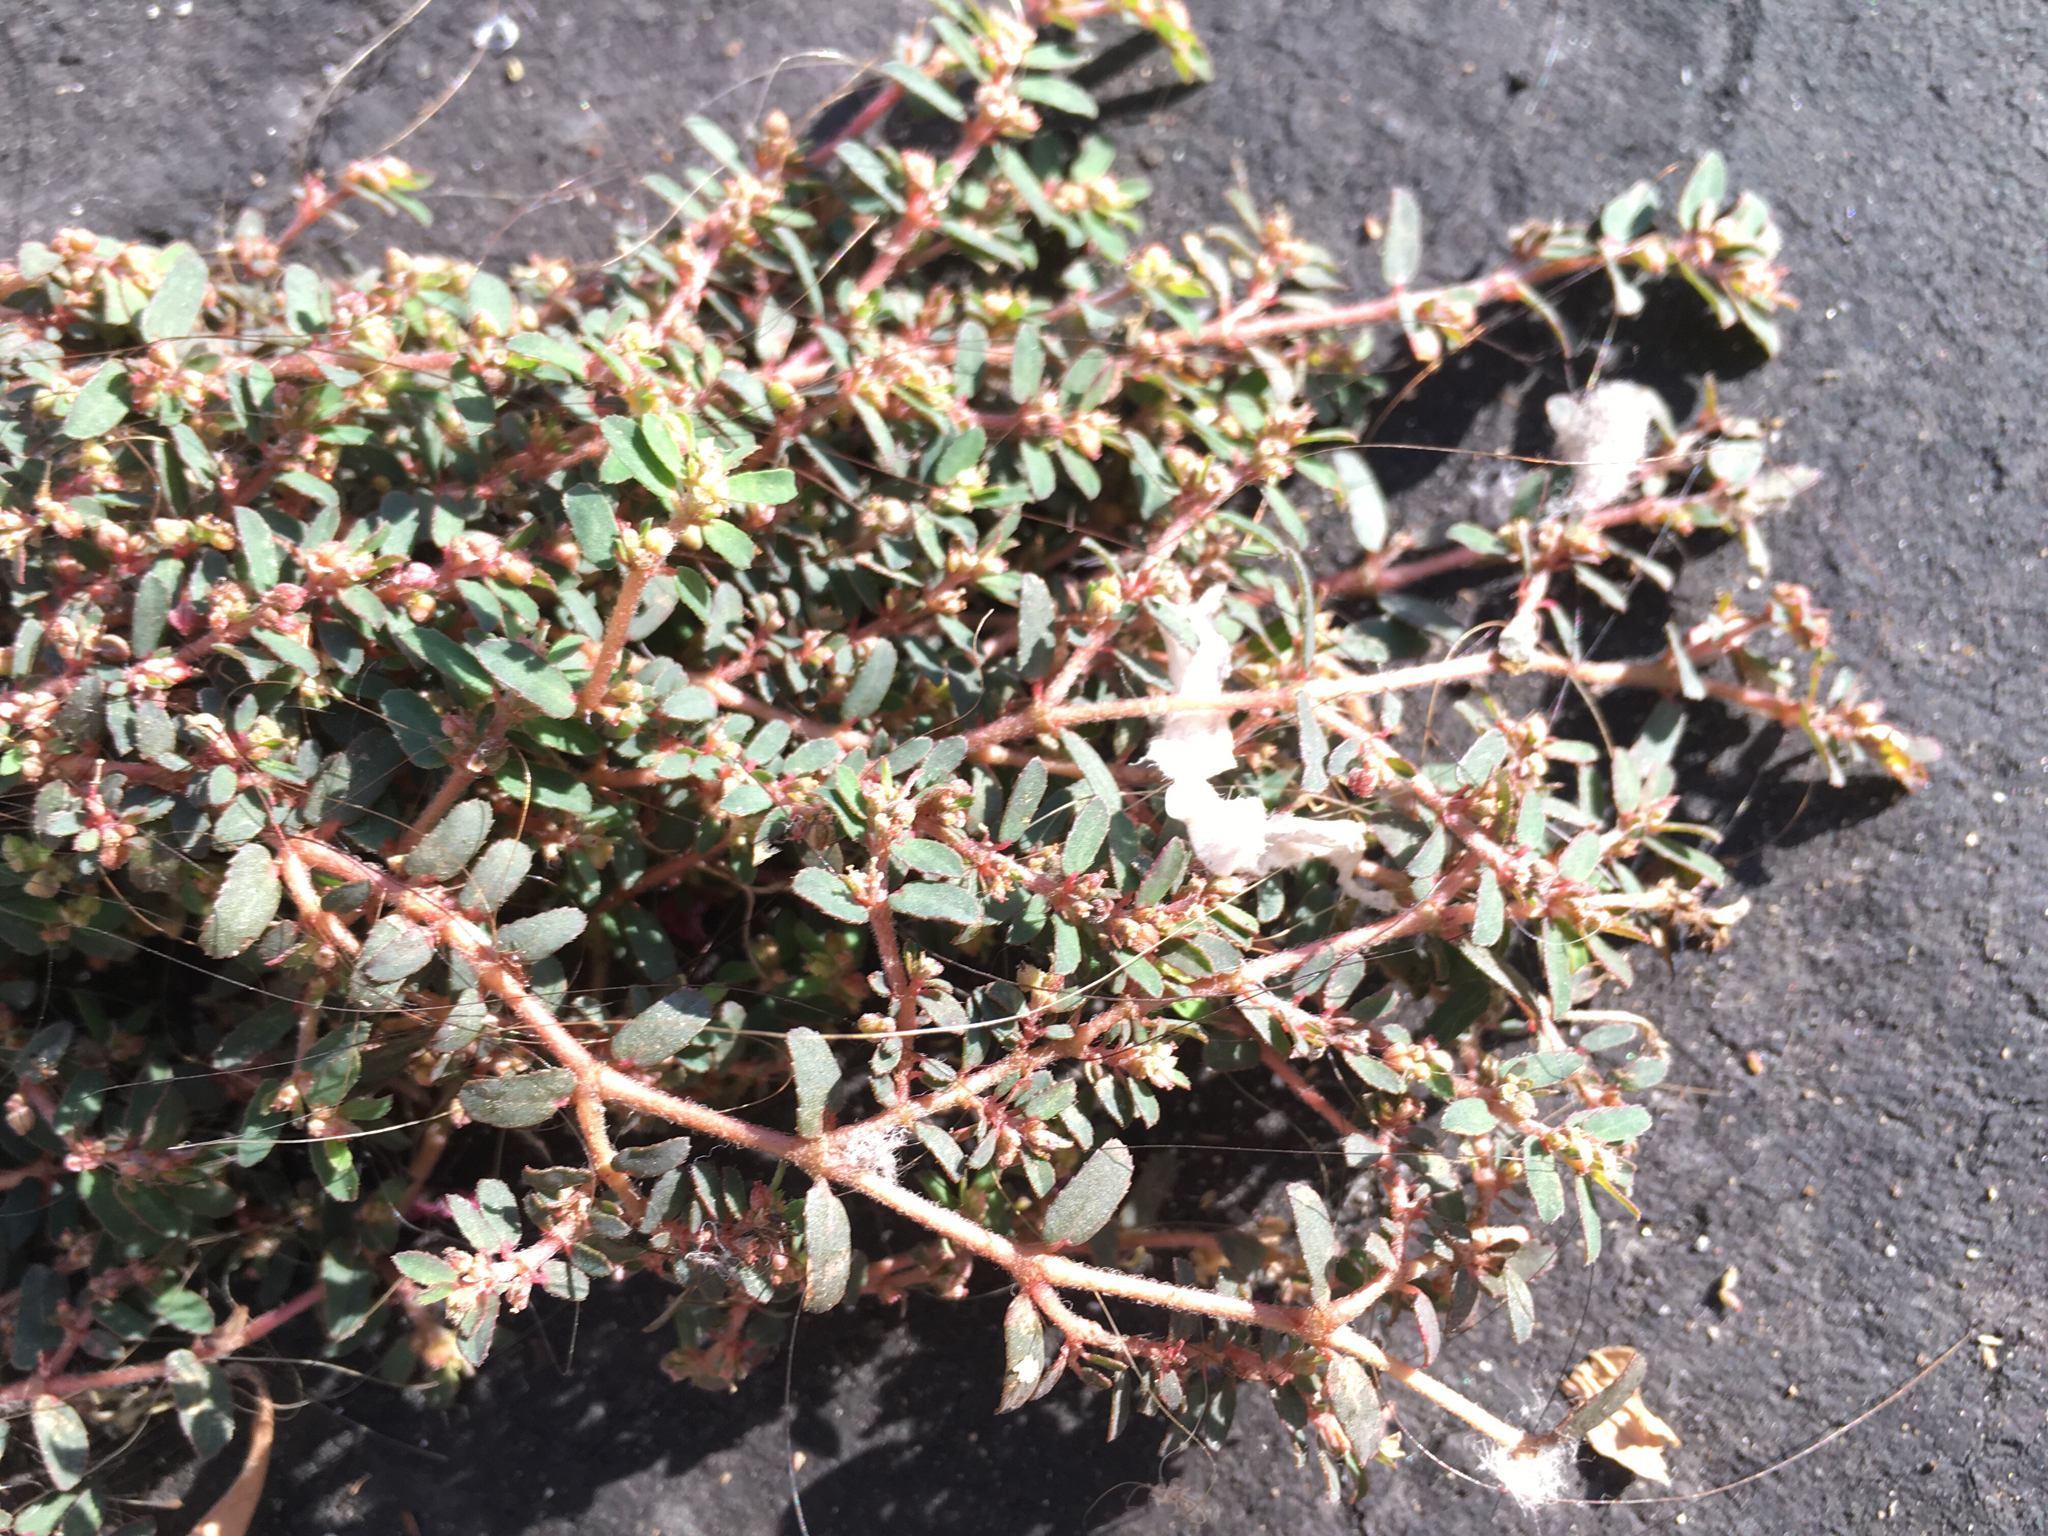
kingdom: Plantae
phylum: Tracheophyta
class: Magnoliopsida
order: Malpighiales
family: Euphorbiaceae
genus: Euphorbia
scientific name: Euphorbia maculata
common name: Spotted spurge
